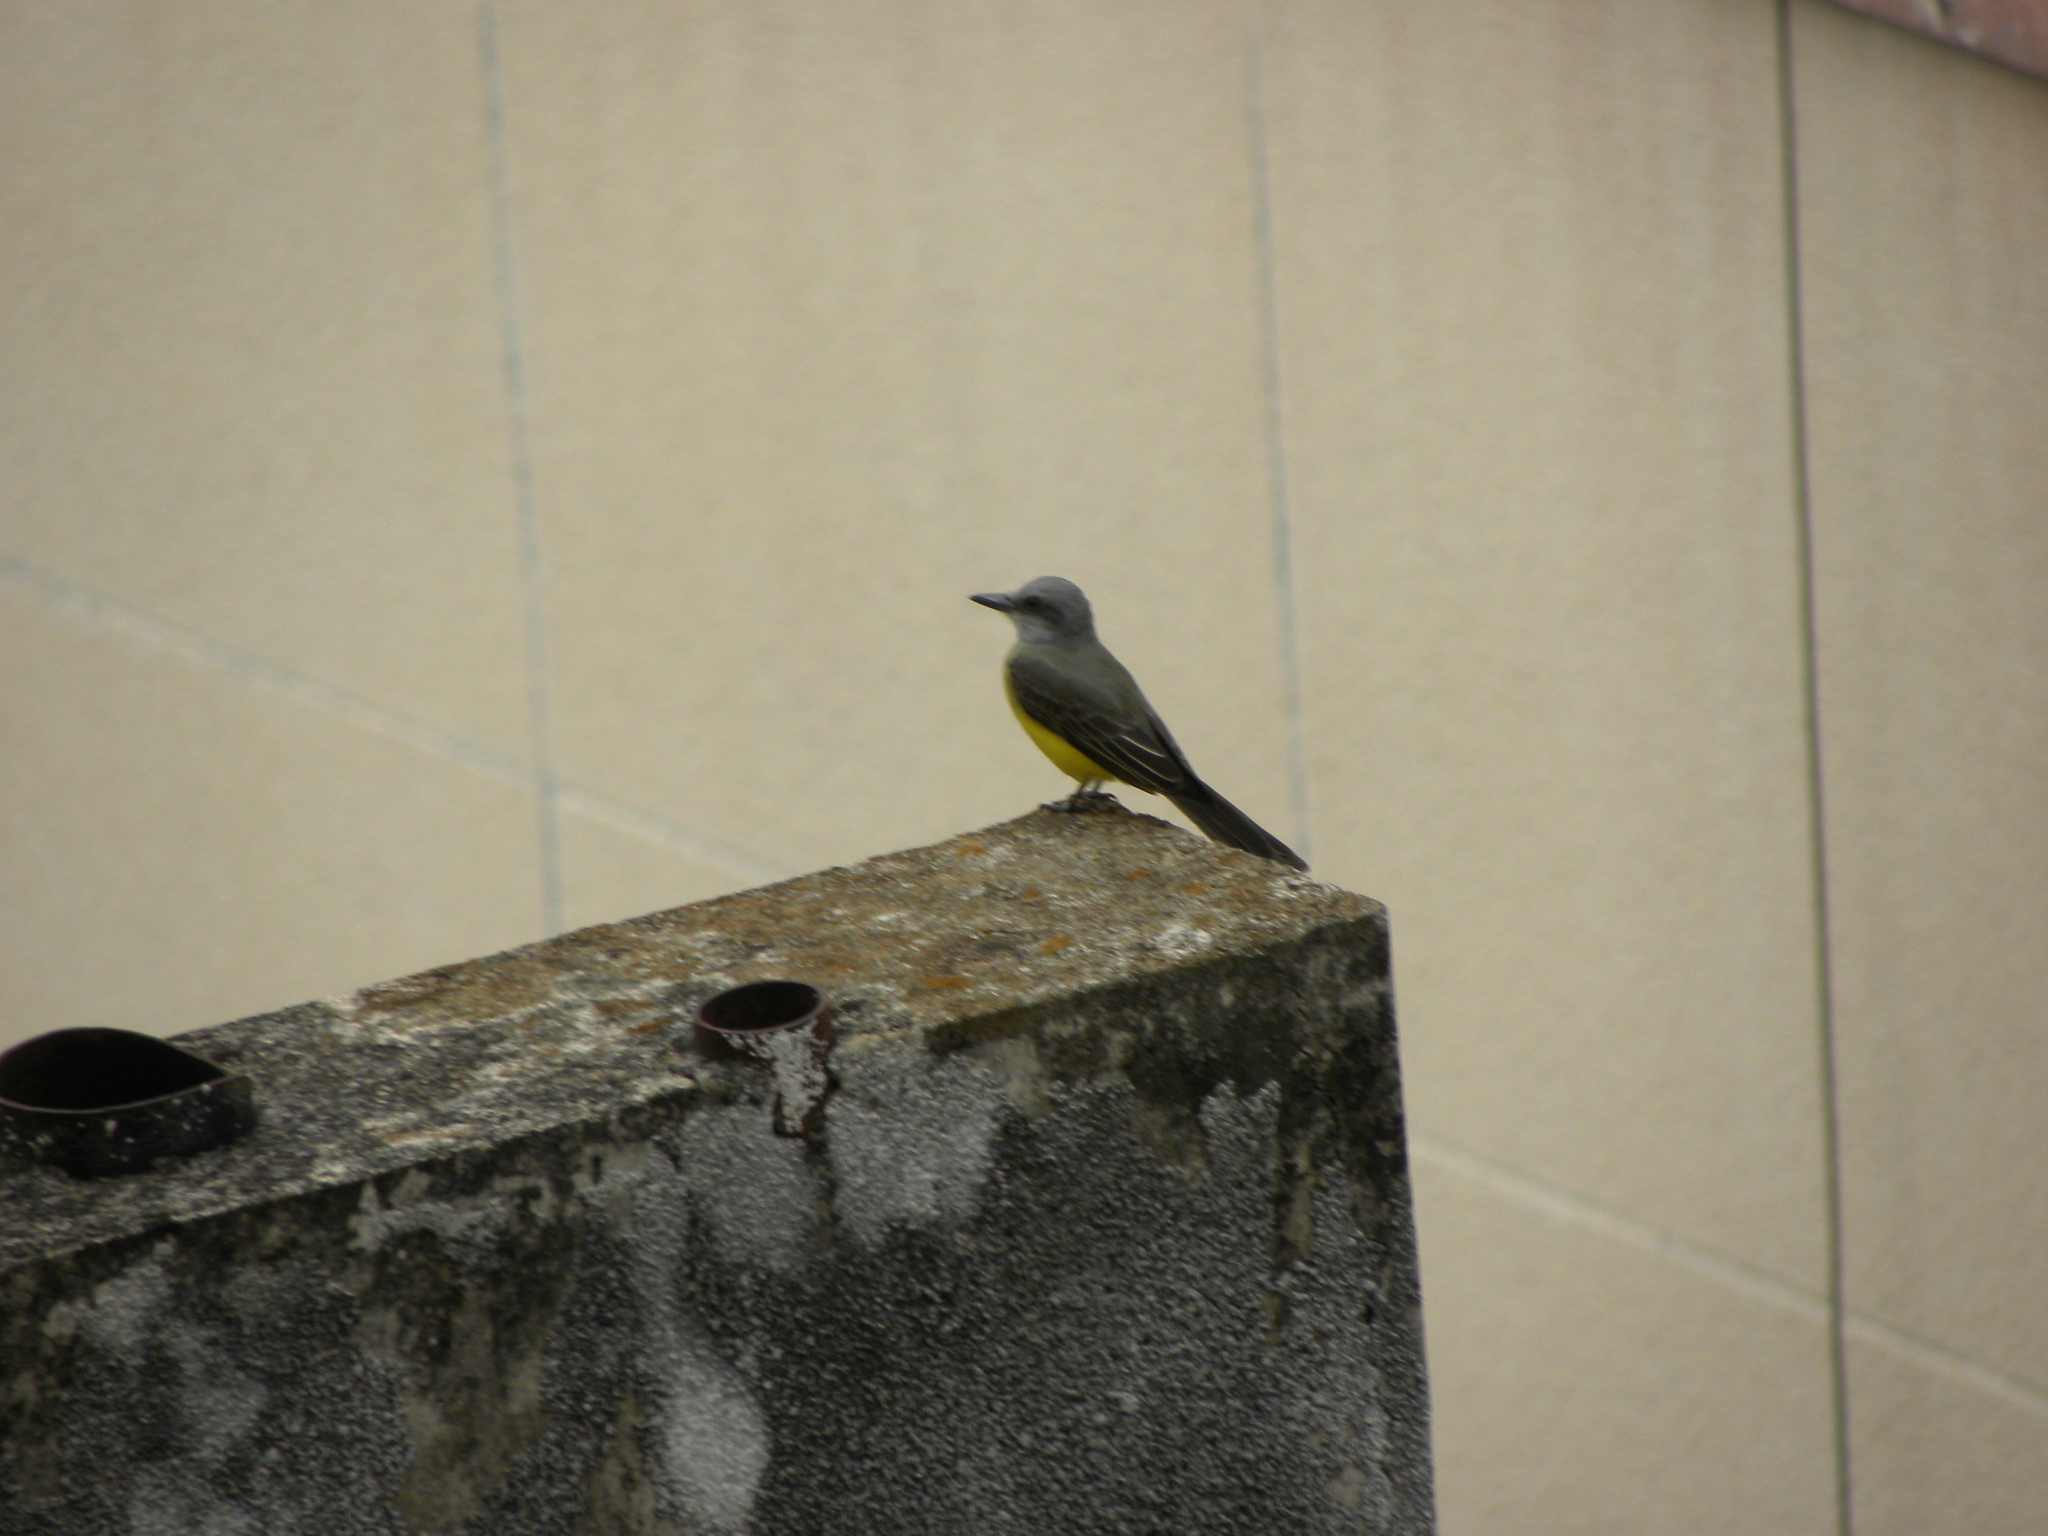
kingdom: Animalia
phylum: Chordata
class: Aves
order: Passeriformes
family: Tyrannidae
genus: Tyrannus
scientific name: Tyrannus melancholicus
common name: Tropical kingbird
